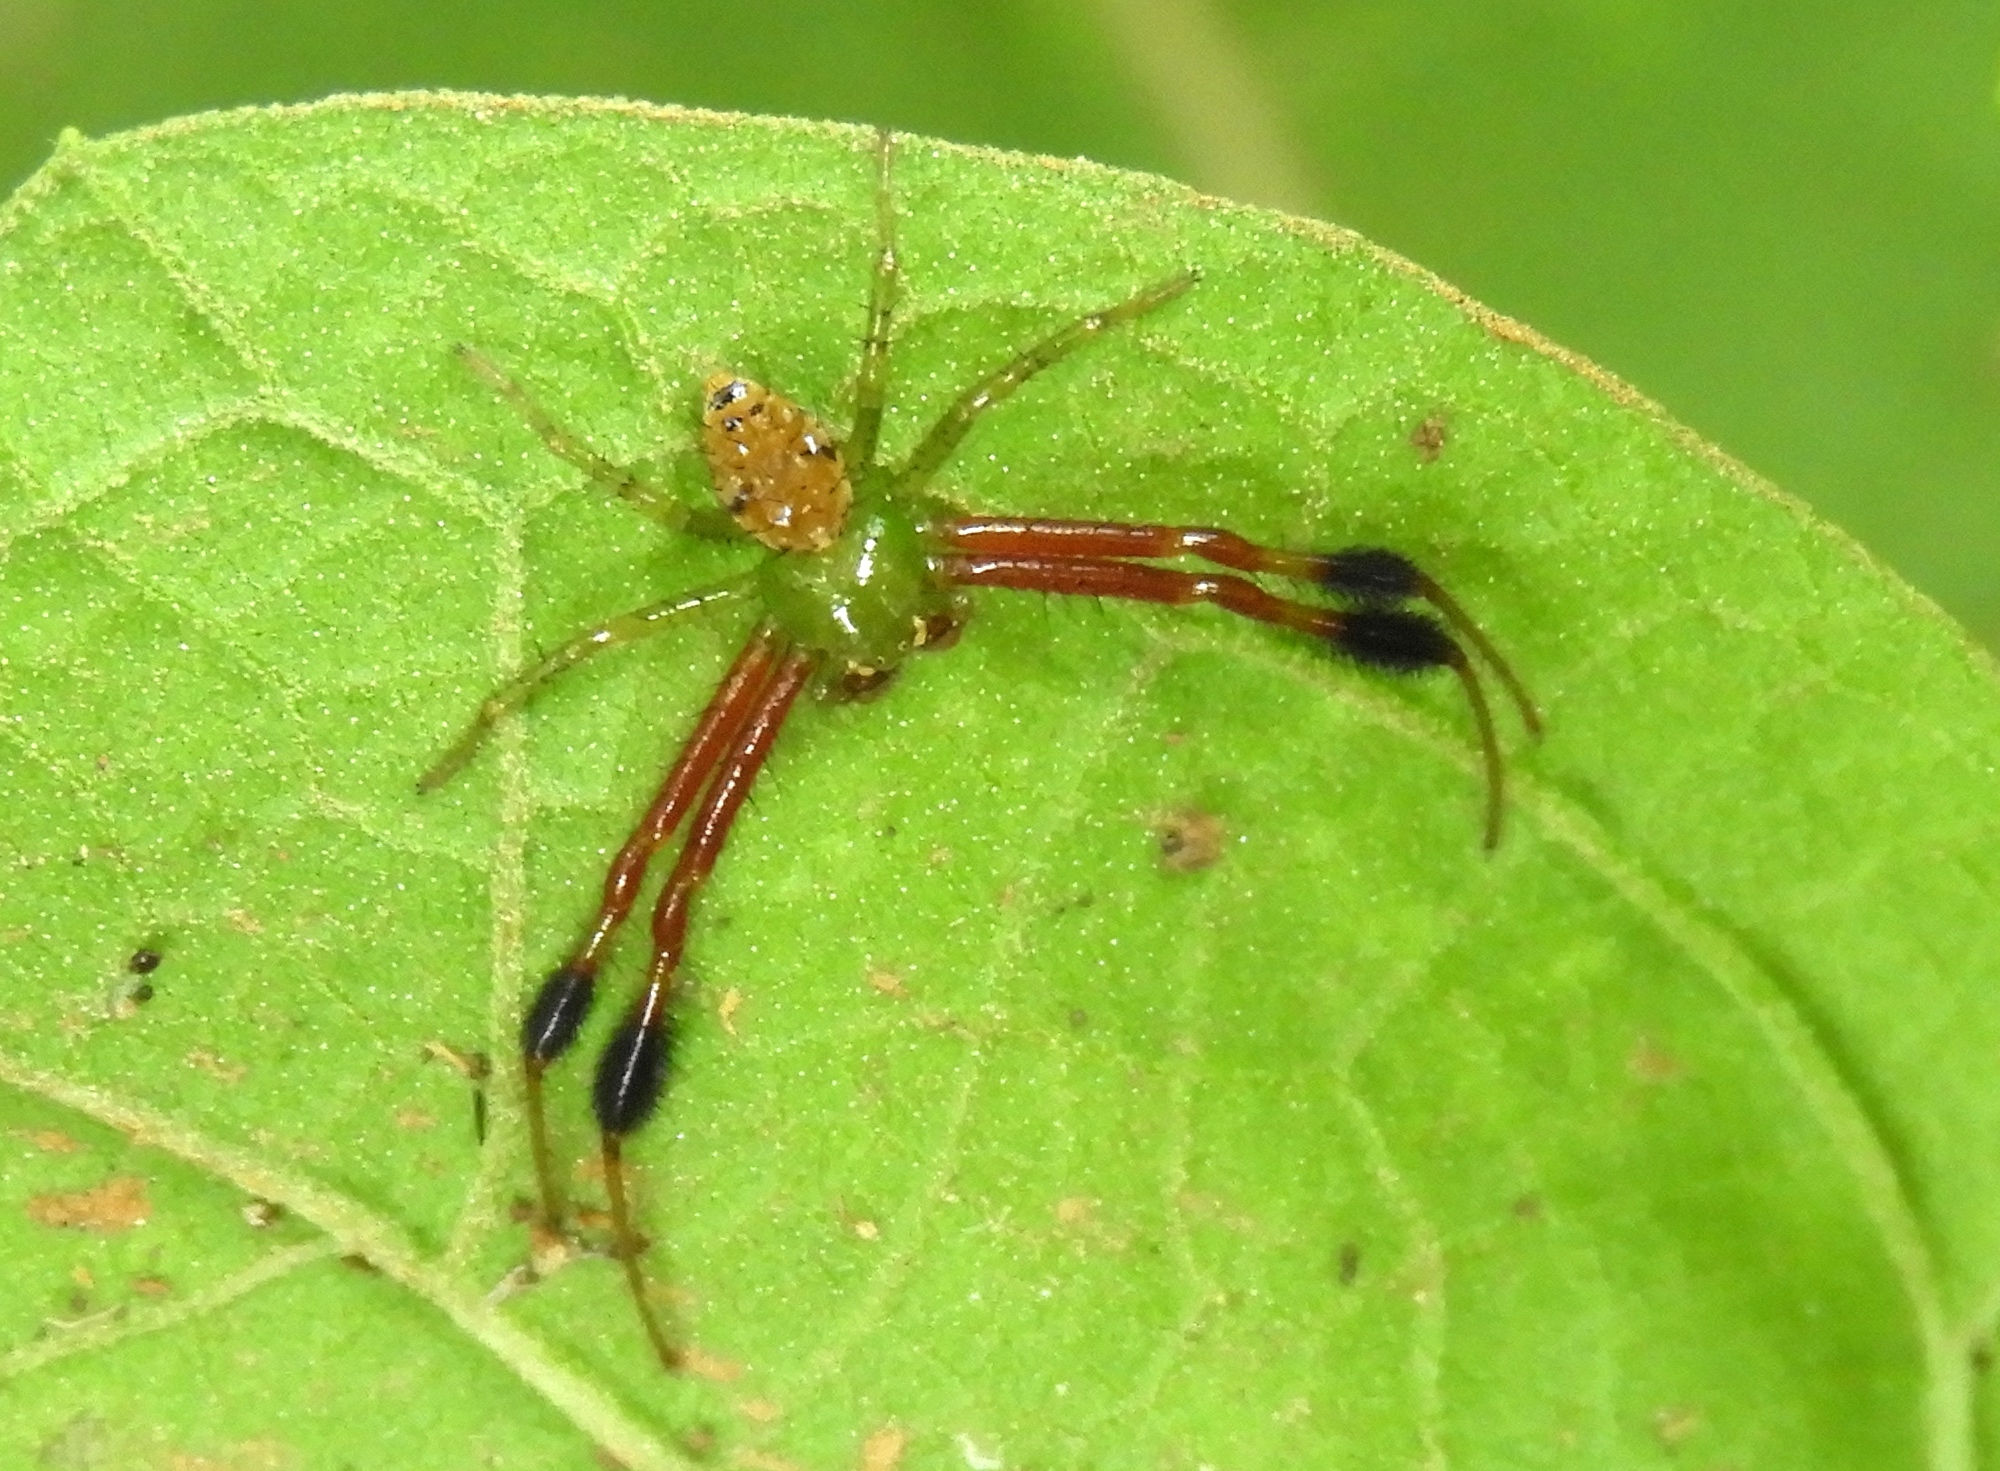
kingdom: Animalia
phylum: Arthropoda
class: Arachnida
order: Araneae
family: Thomisidae
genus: Parasynema
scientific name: Parasynema cirripes
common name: Crab spiders
